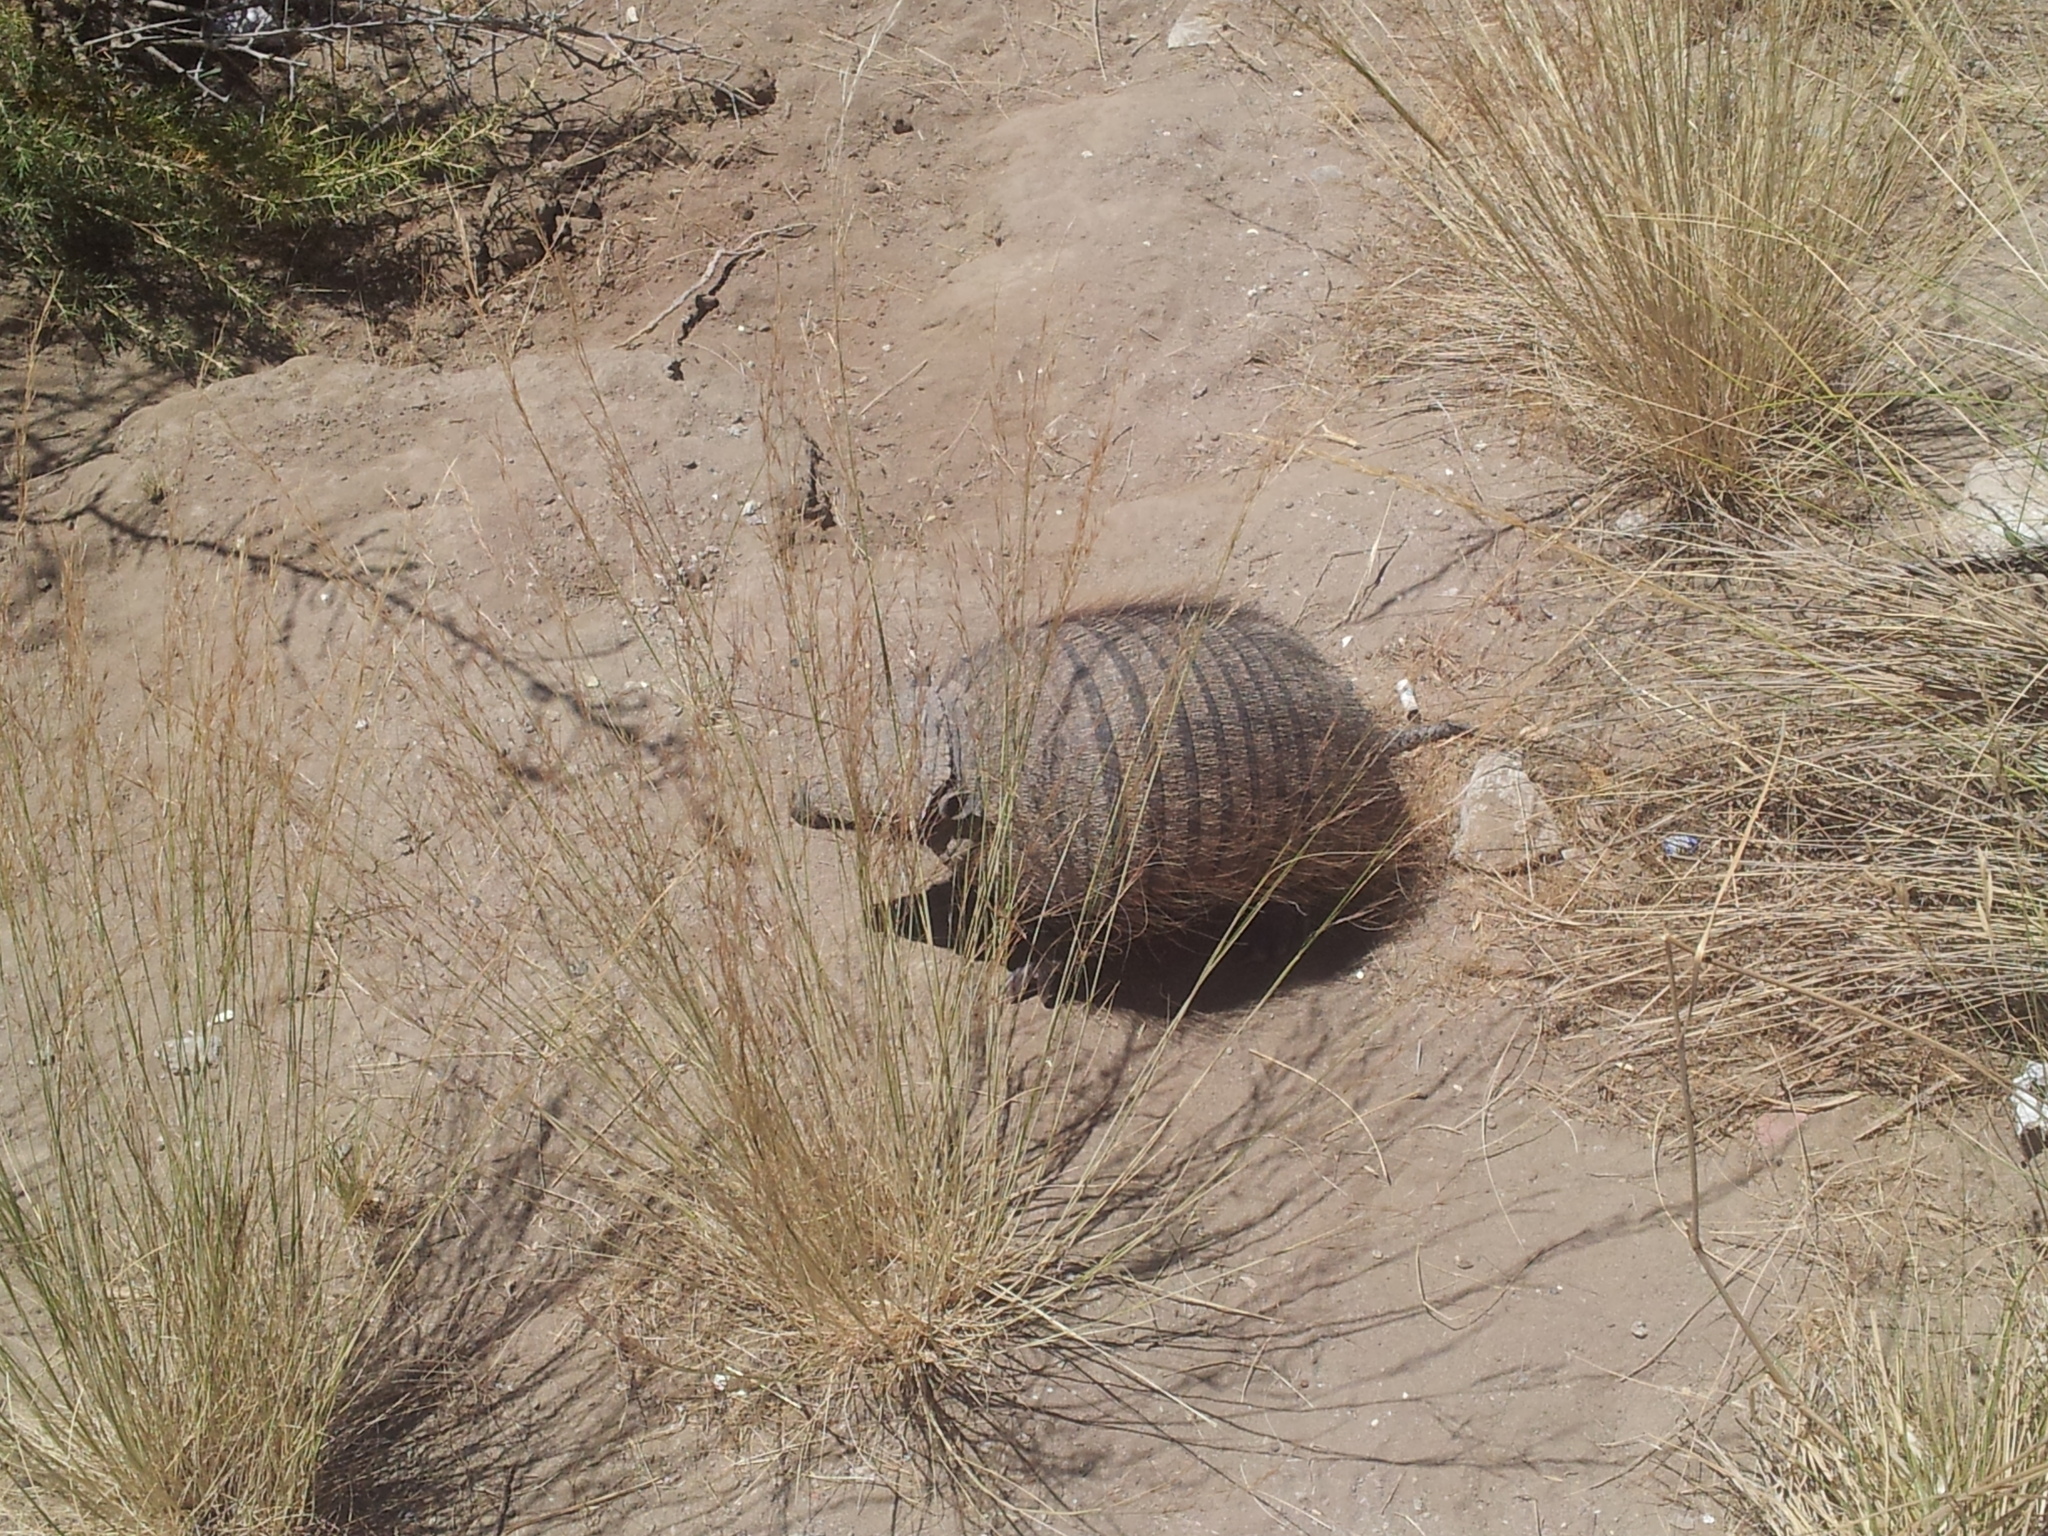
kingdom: Animalia
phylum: Chordata
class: Mammalia
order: Cingulata
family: Dasypodidae
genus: Chaetophractus
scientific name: Chaetophractus villosus
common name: Big hairy armadillo
